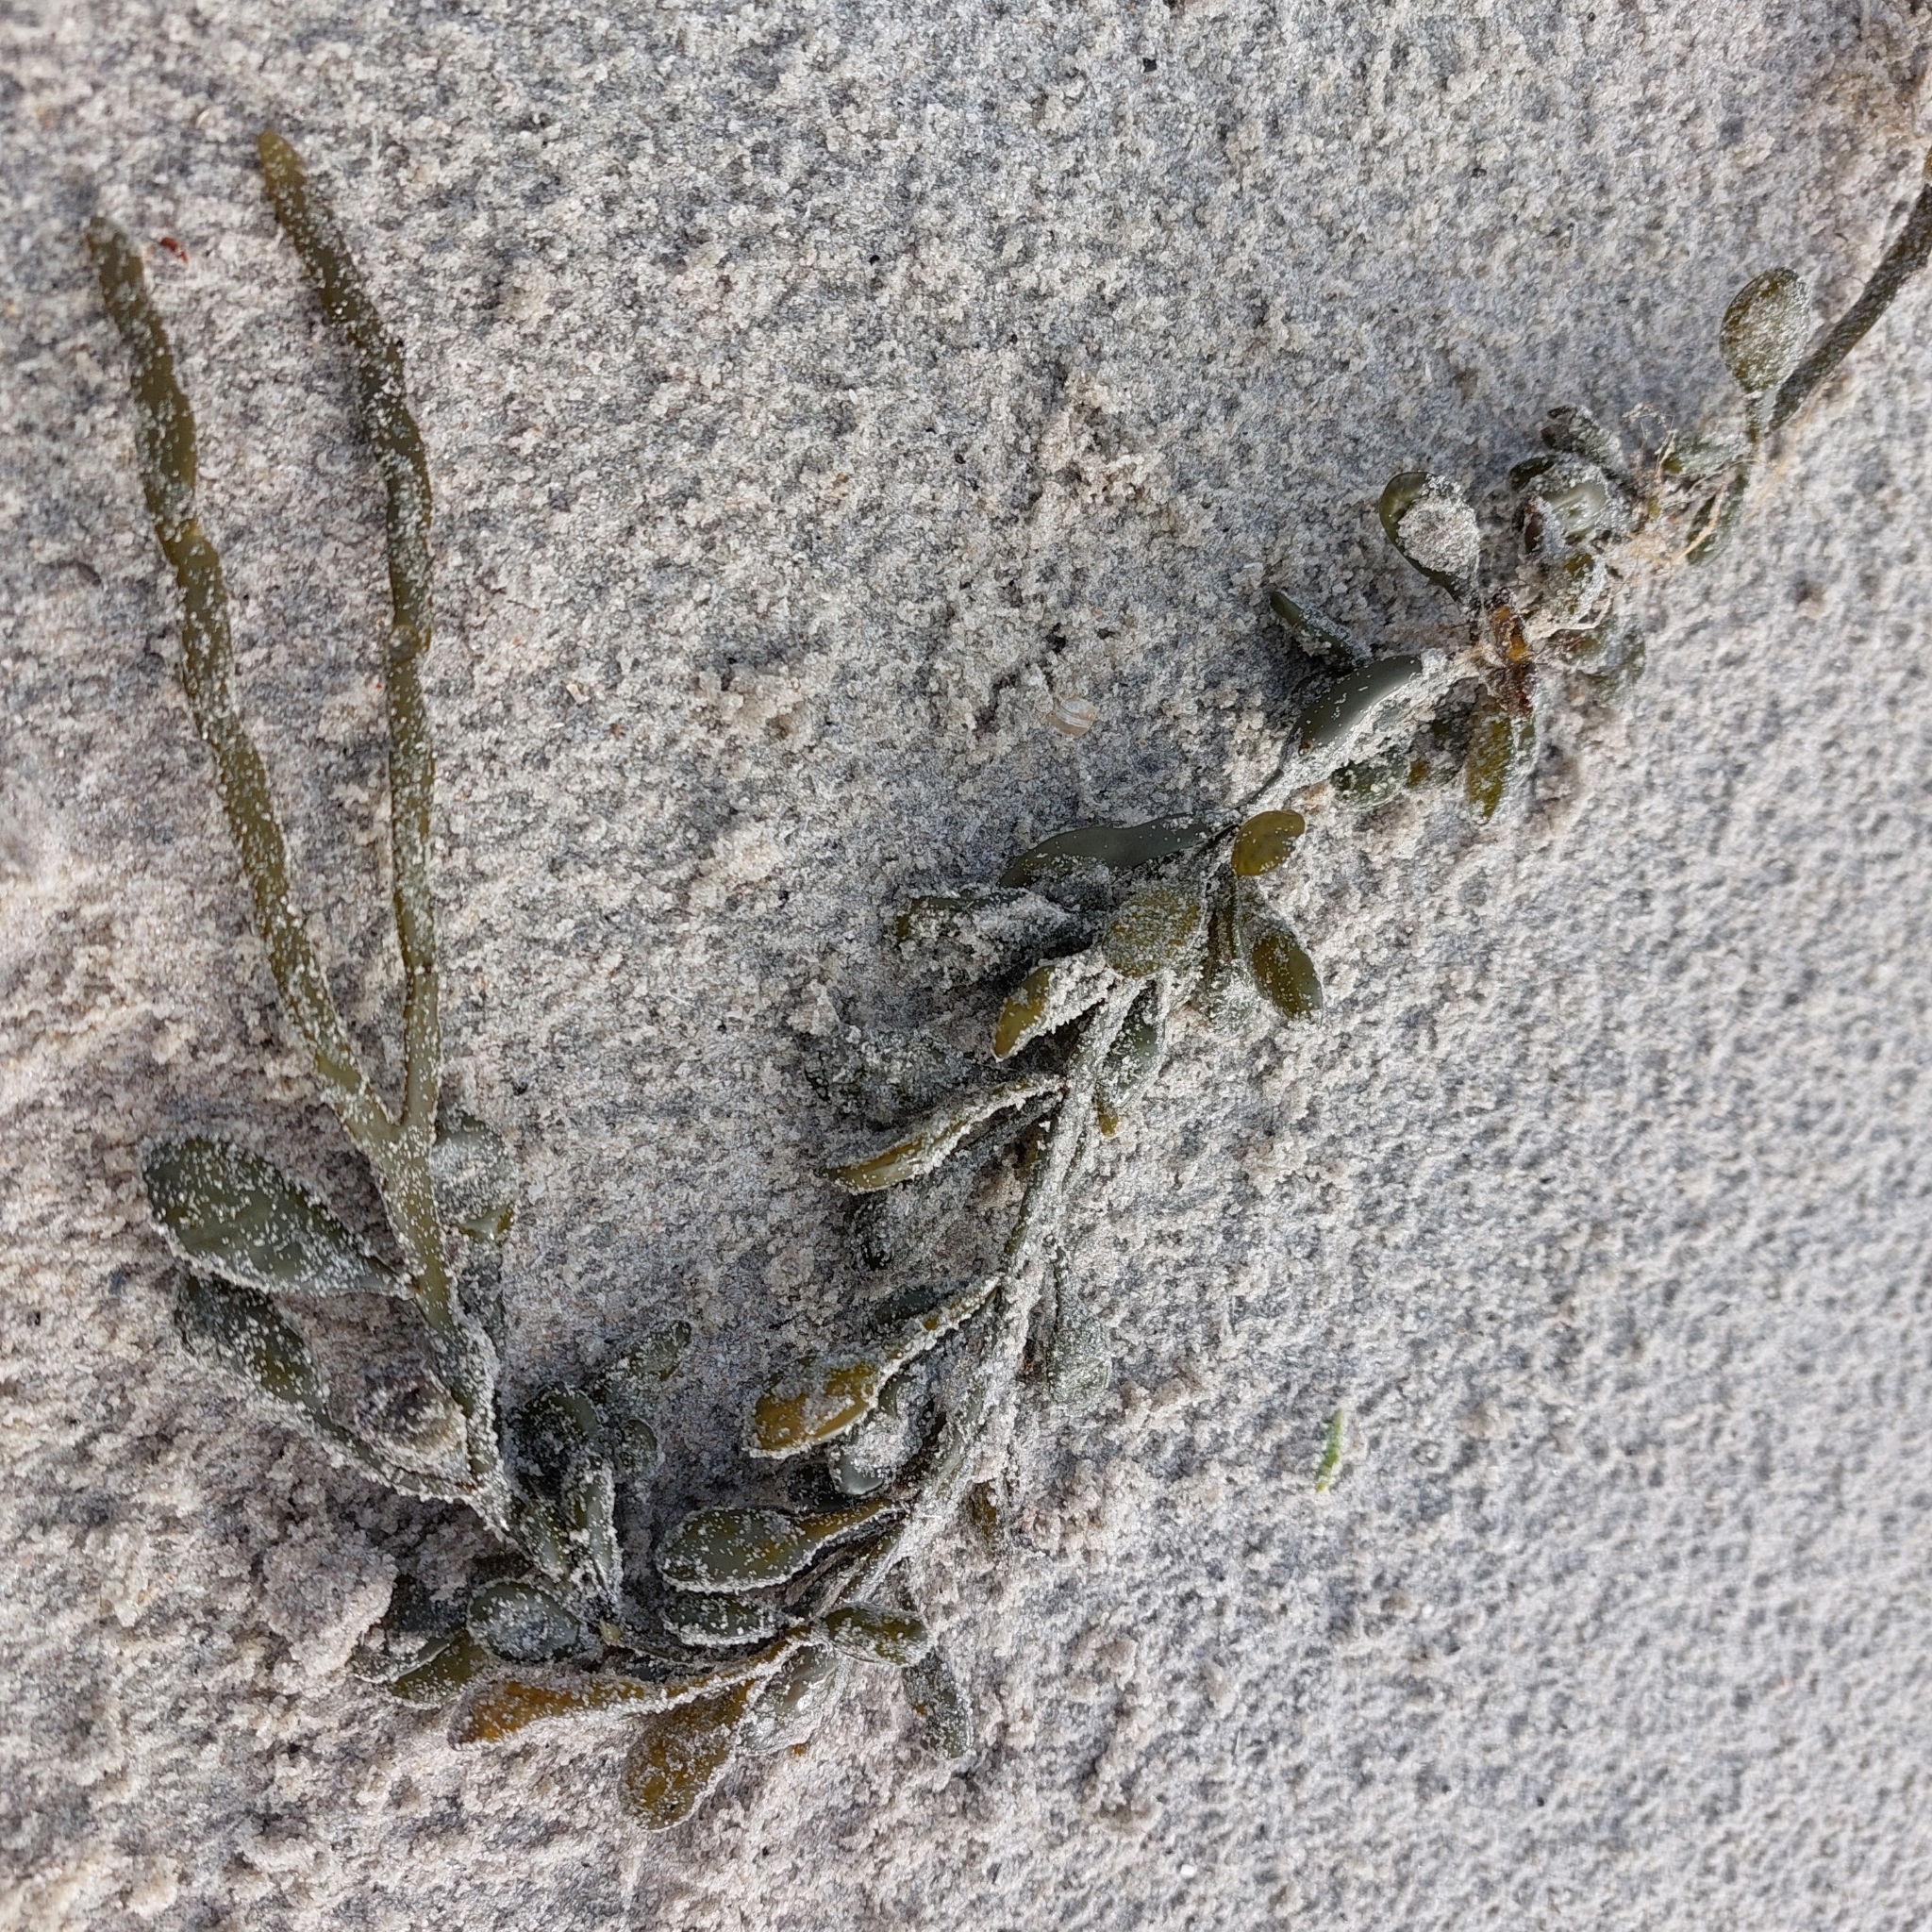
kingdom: Chromista
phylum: Ochrophyta
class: Phaeophyceae
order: Fucales
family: Fucaceae
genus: Ascophyllum
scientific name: Ascophyllum nodosum
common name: Knotted wrack
